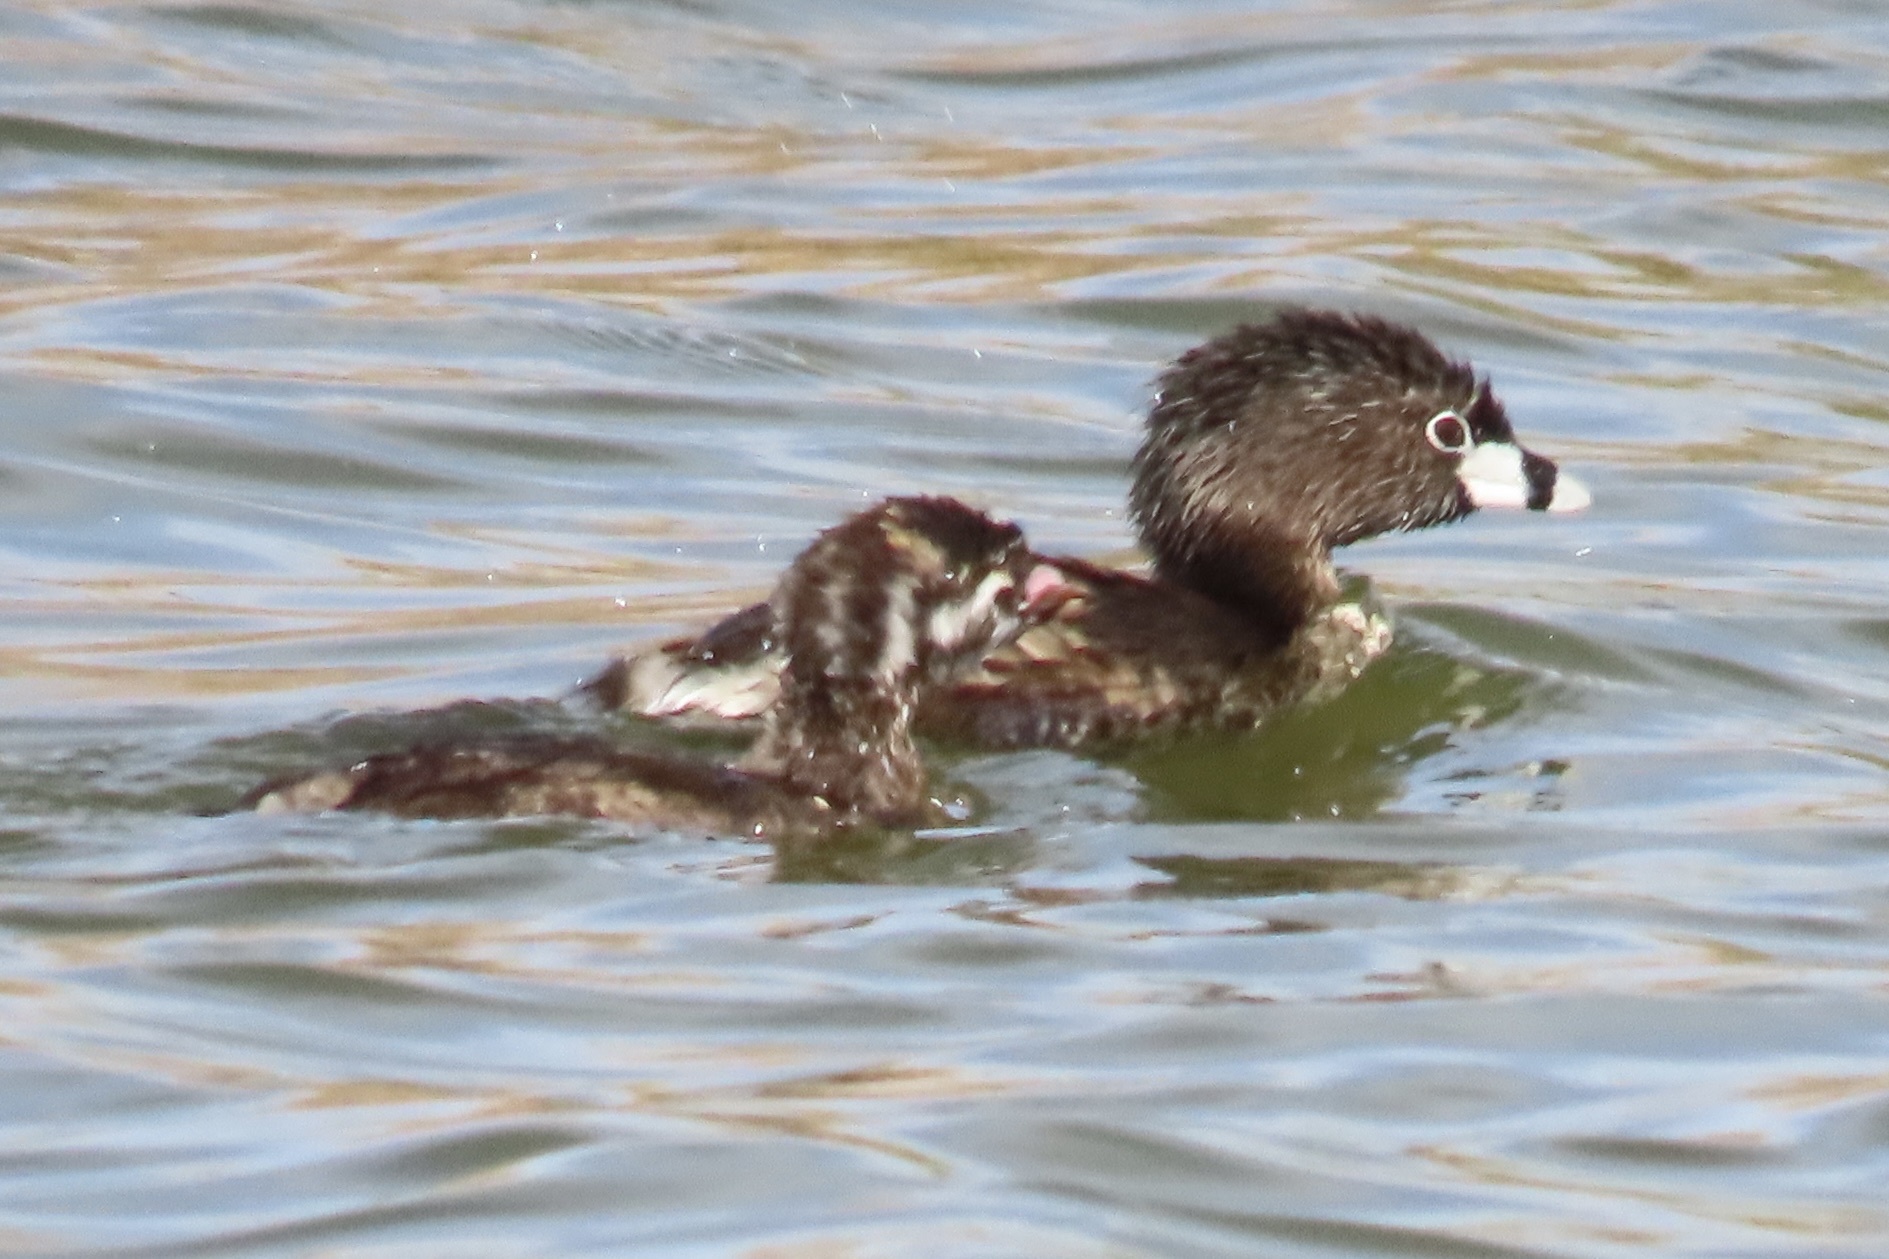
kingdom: Animalia
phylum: Chordata
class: Aves
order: Podicipediformes
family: Podicipedidae
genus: Podilymbus
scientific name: Podilymbus podiceps
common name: Pied-billed grebe
